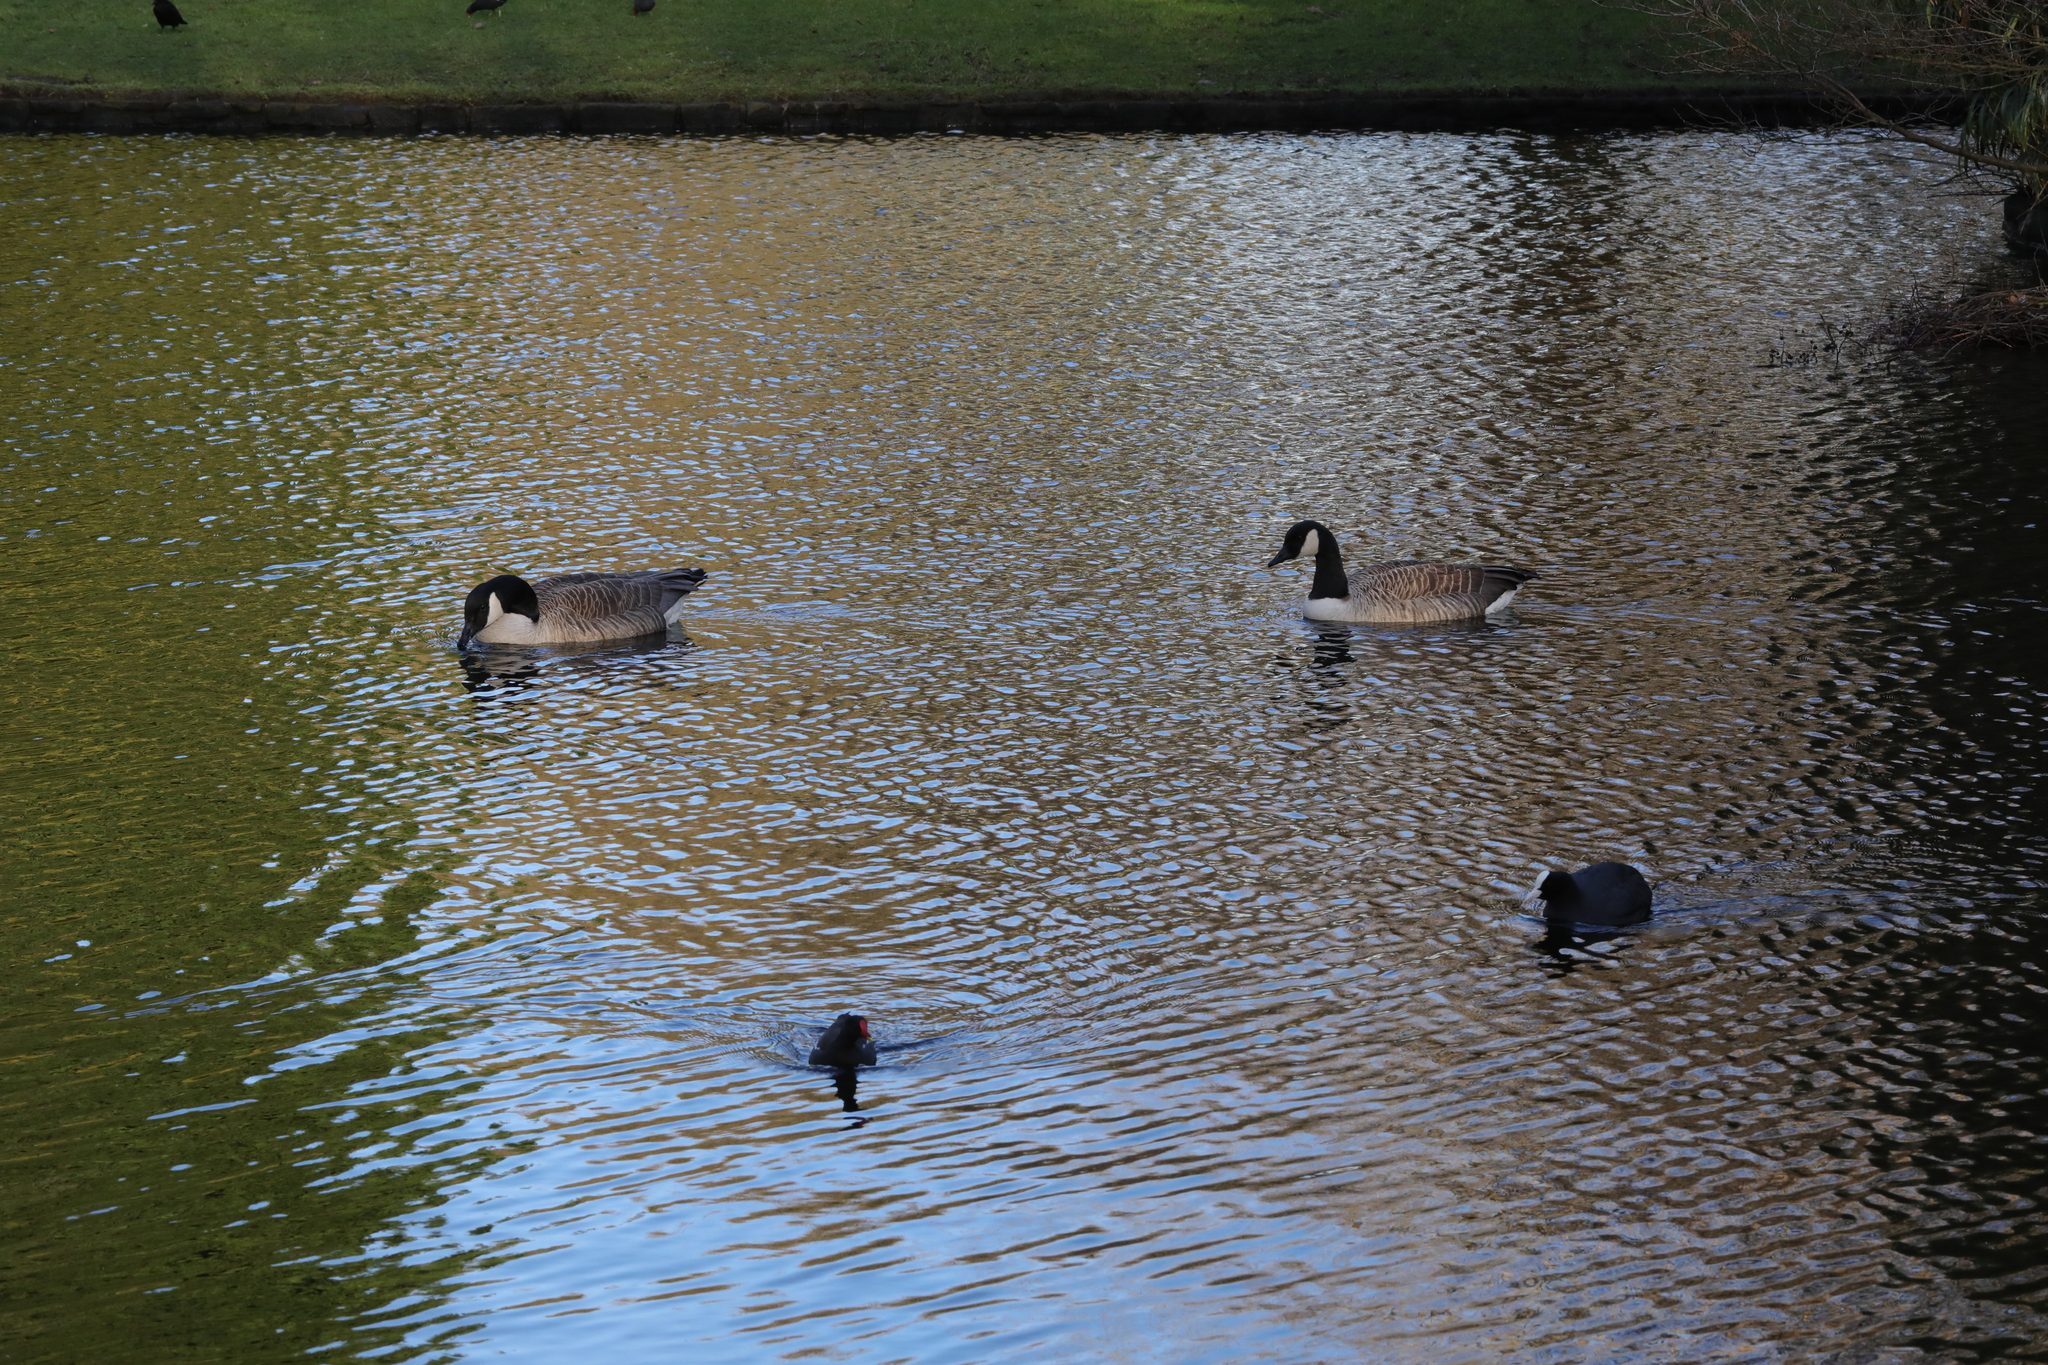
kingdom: Animalia
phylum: Chordata
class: Aves
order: Anseriformes
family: Anatidae
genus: Branta
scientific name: Branta canadensis
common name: Canada goose
